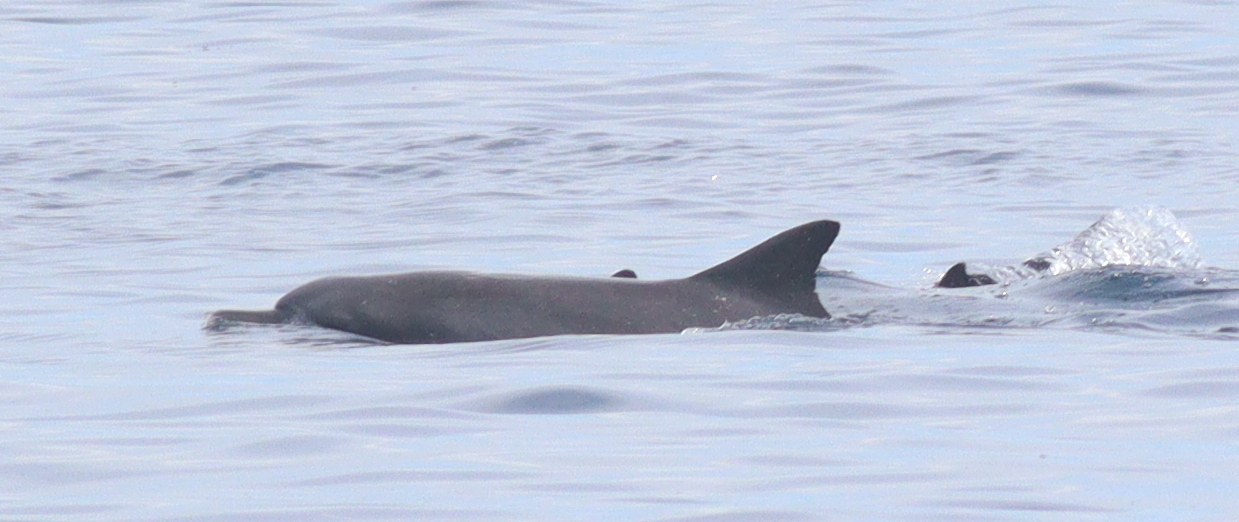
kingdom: Animalia
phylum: Chordata
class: Mammalia
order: Cetacea
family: Delphinidae
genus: Tursiops
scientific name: Tursiops aduncus
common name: Indo-pacific bottlenose dolphin
